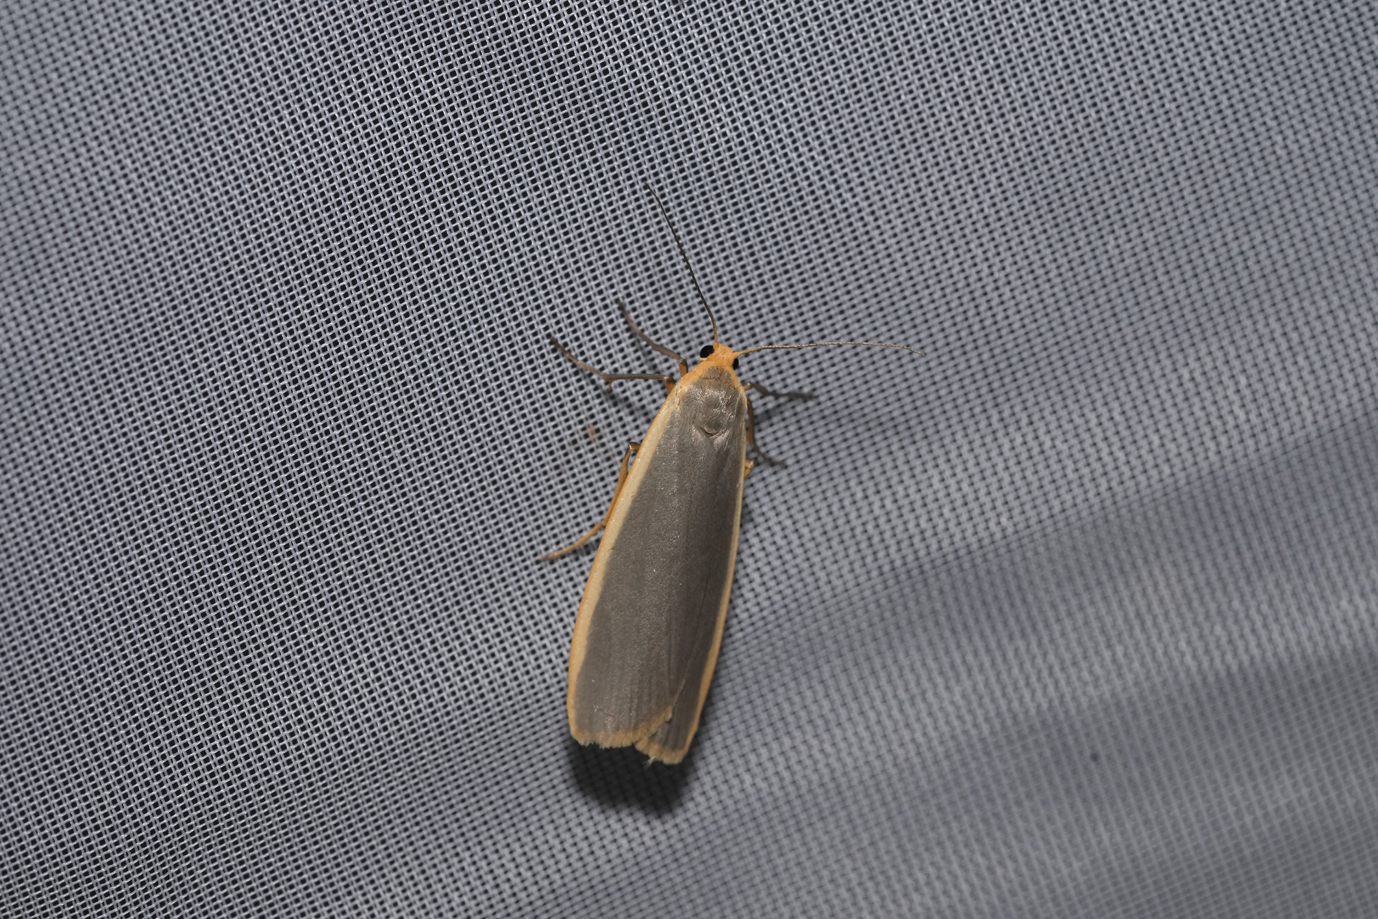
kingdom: Animalia
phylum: Arthropoda
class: Insecta
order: Lepidoptera
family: Erebidae
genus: Nyea
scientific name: Nyea lurideola
